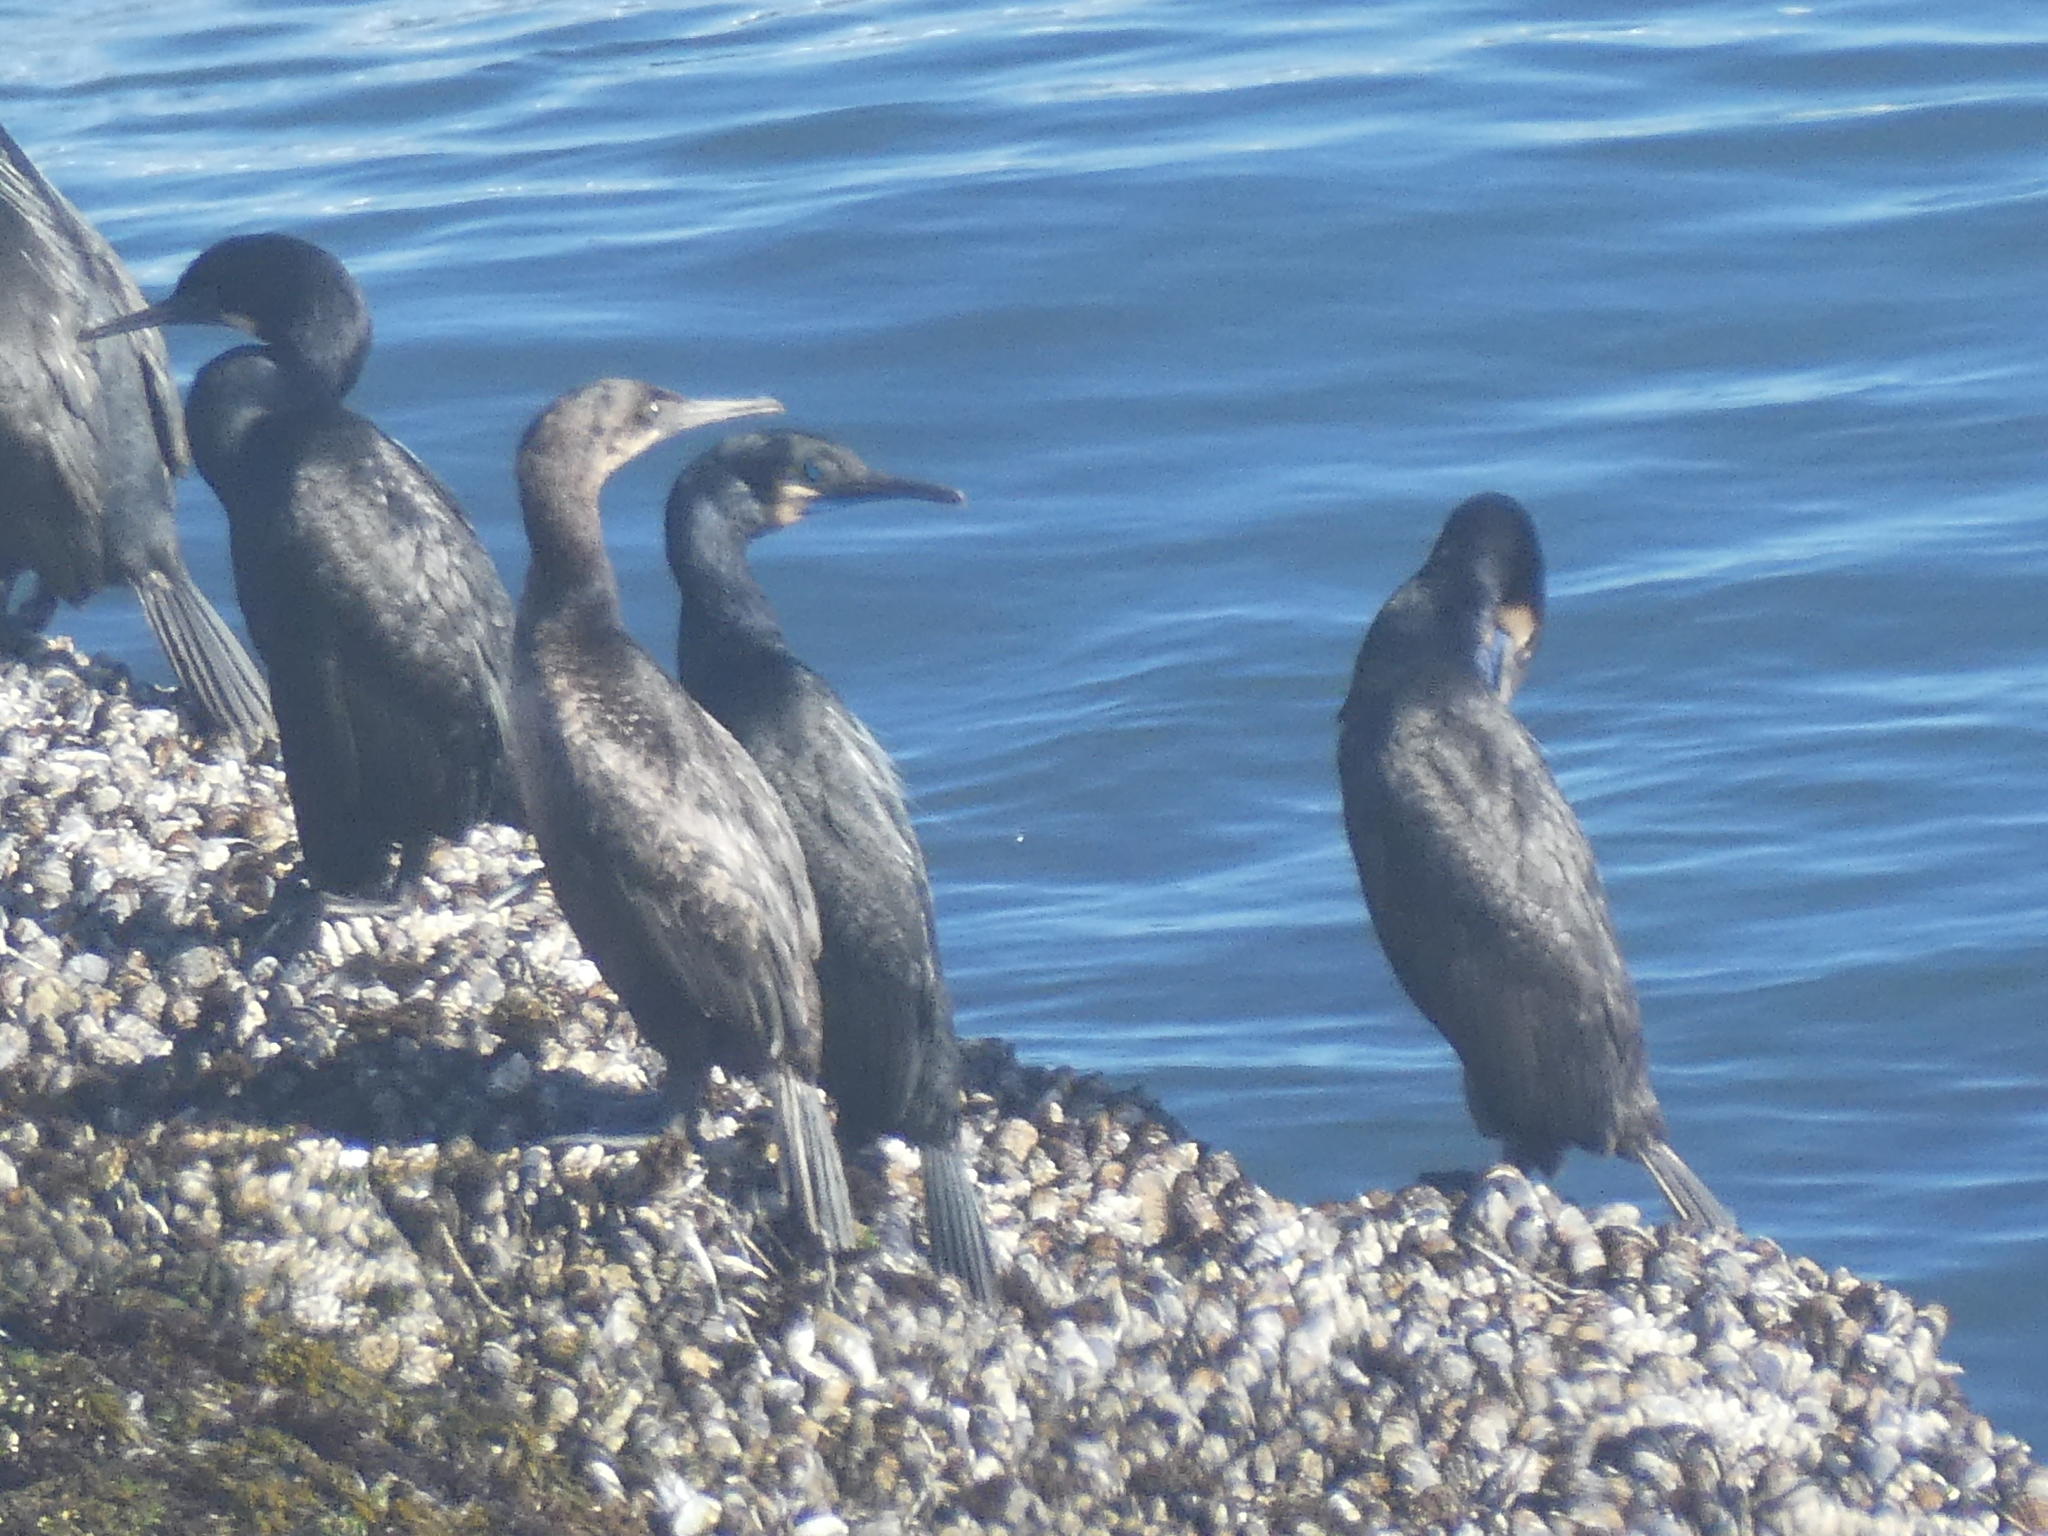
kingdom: Animalia
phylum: Chordata
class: Aves
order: Suliformes
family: Phalacrocoracidae
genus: Urile
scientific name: Urile penicillatus
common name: Brandt's cormorant
